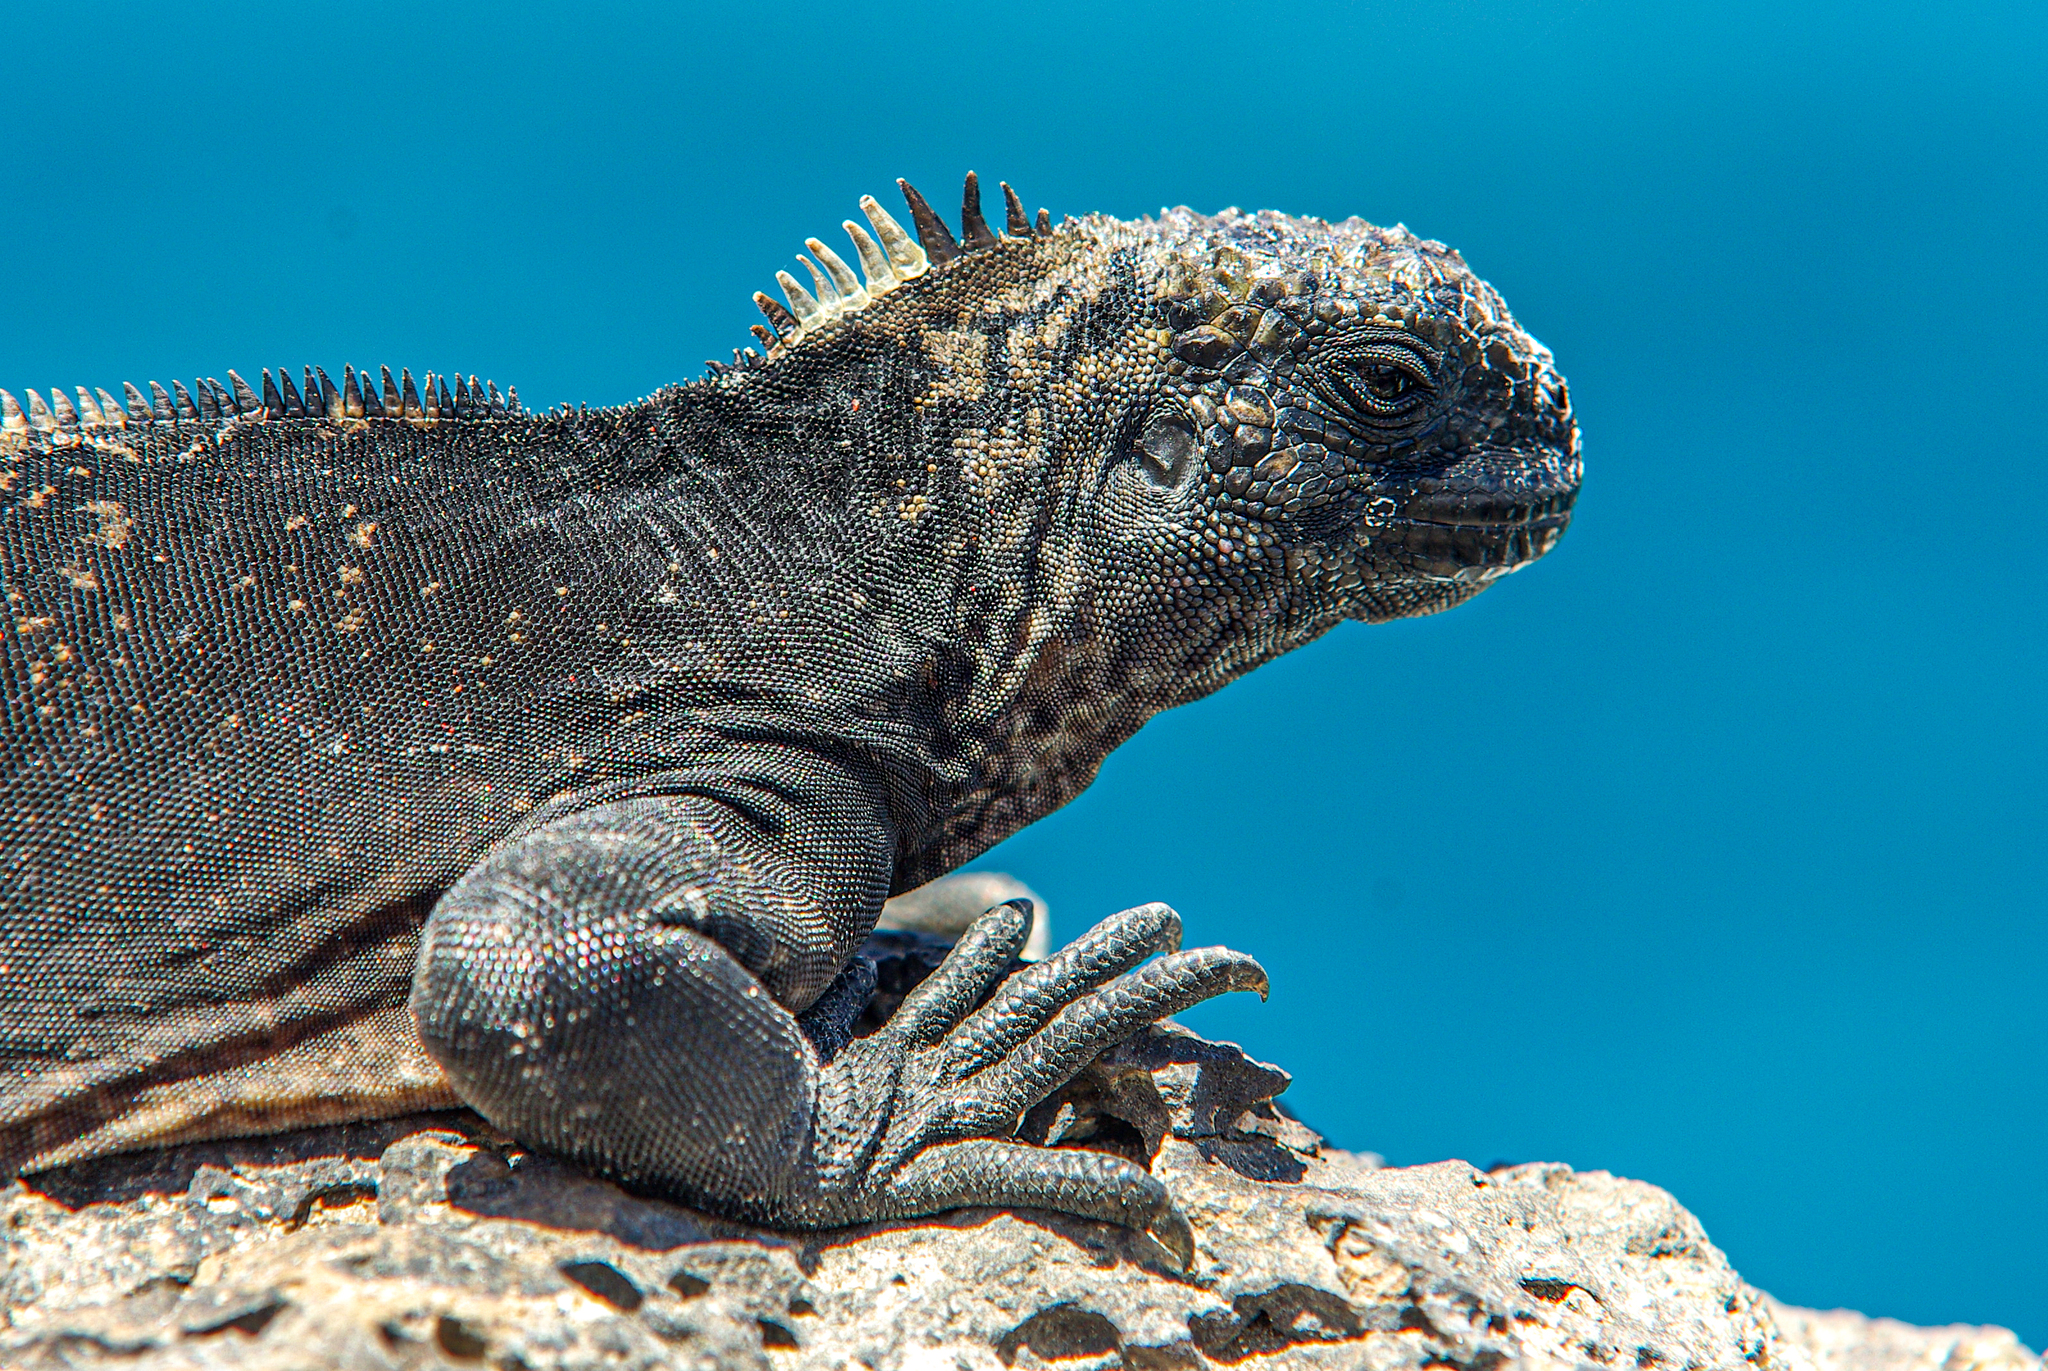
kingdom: Animalia
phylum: Chordata
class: Squamata
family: Iguanidae
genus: Amblyrhynchus
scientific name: Amblyrhynchus cristatus
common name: Marine iguana
